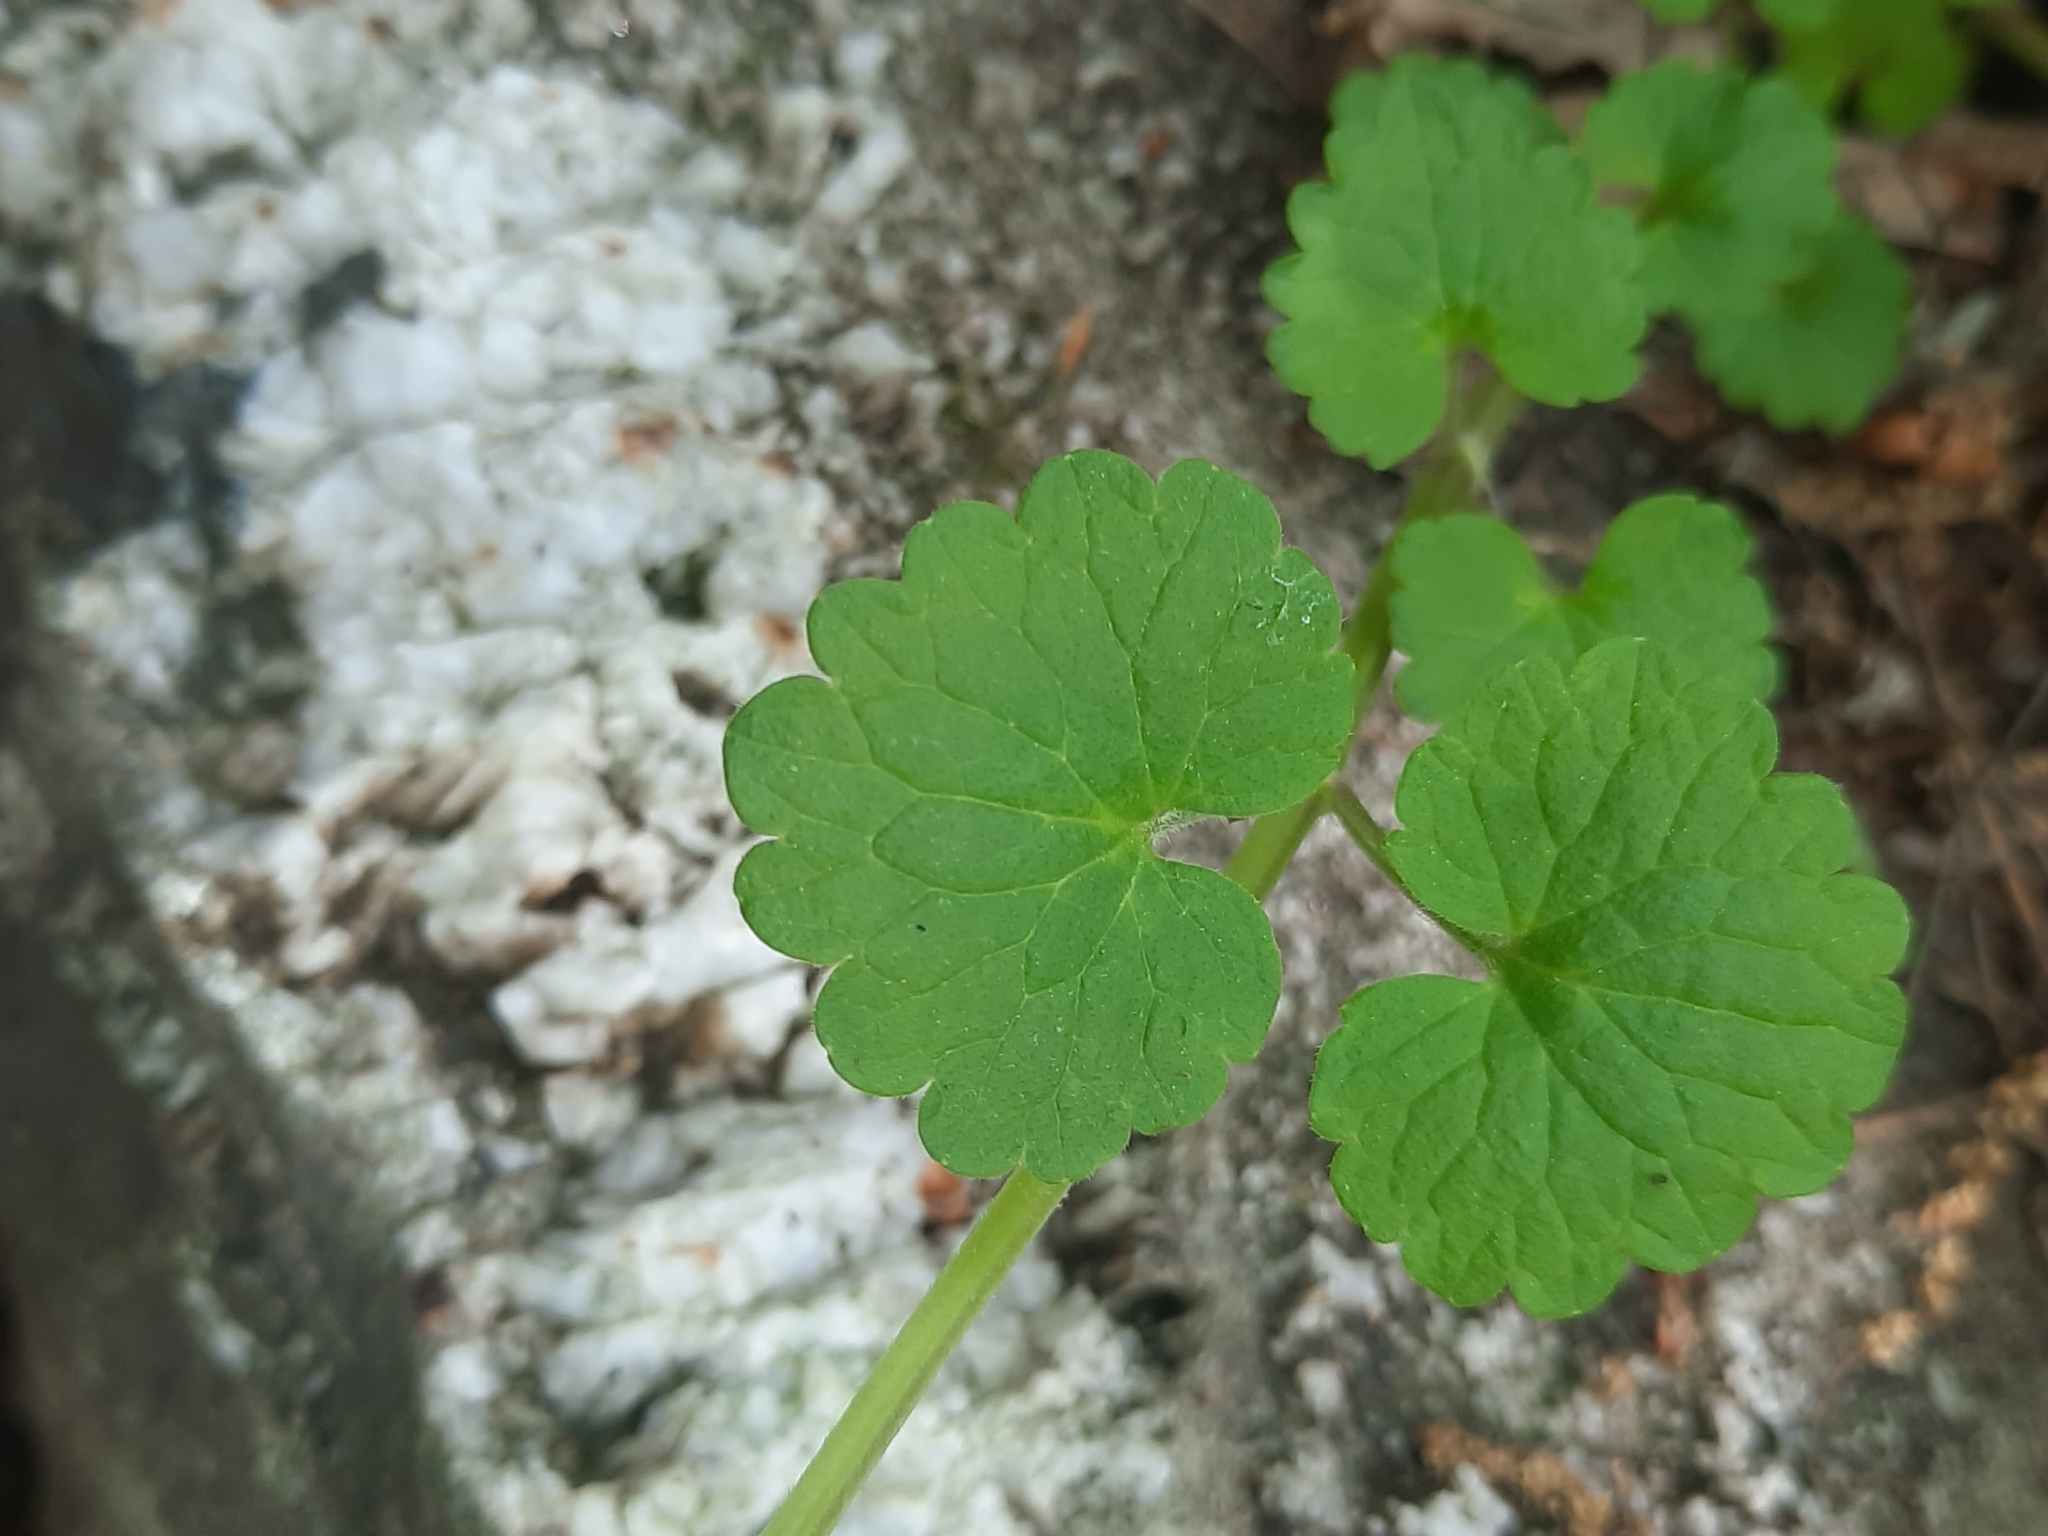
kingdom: Plantae
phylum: Tracheophyta
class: Magnoliopsida
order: Lamiales
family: Lamiaceae
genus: Glechoma
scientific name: Glechoma hederacea
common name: Ground ivy
